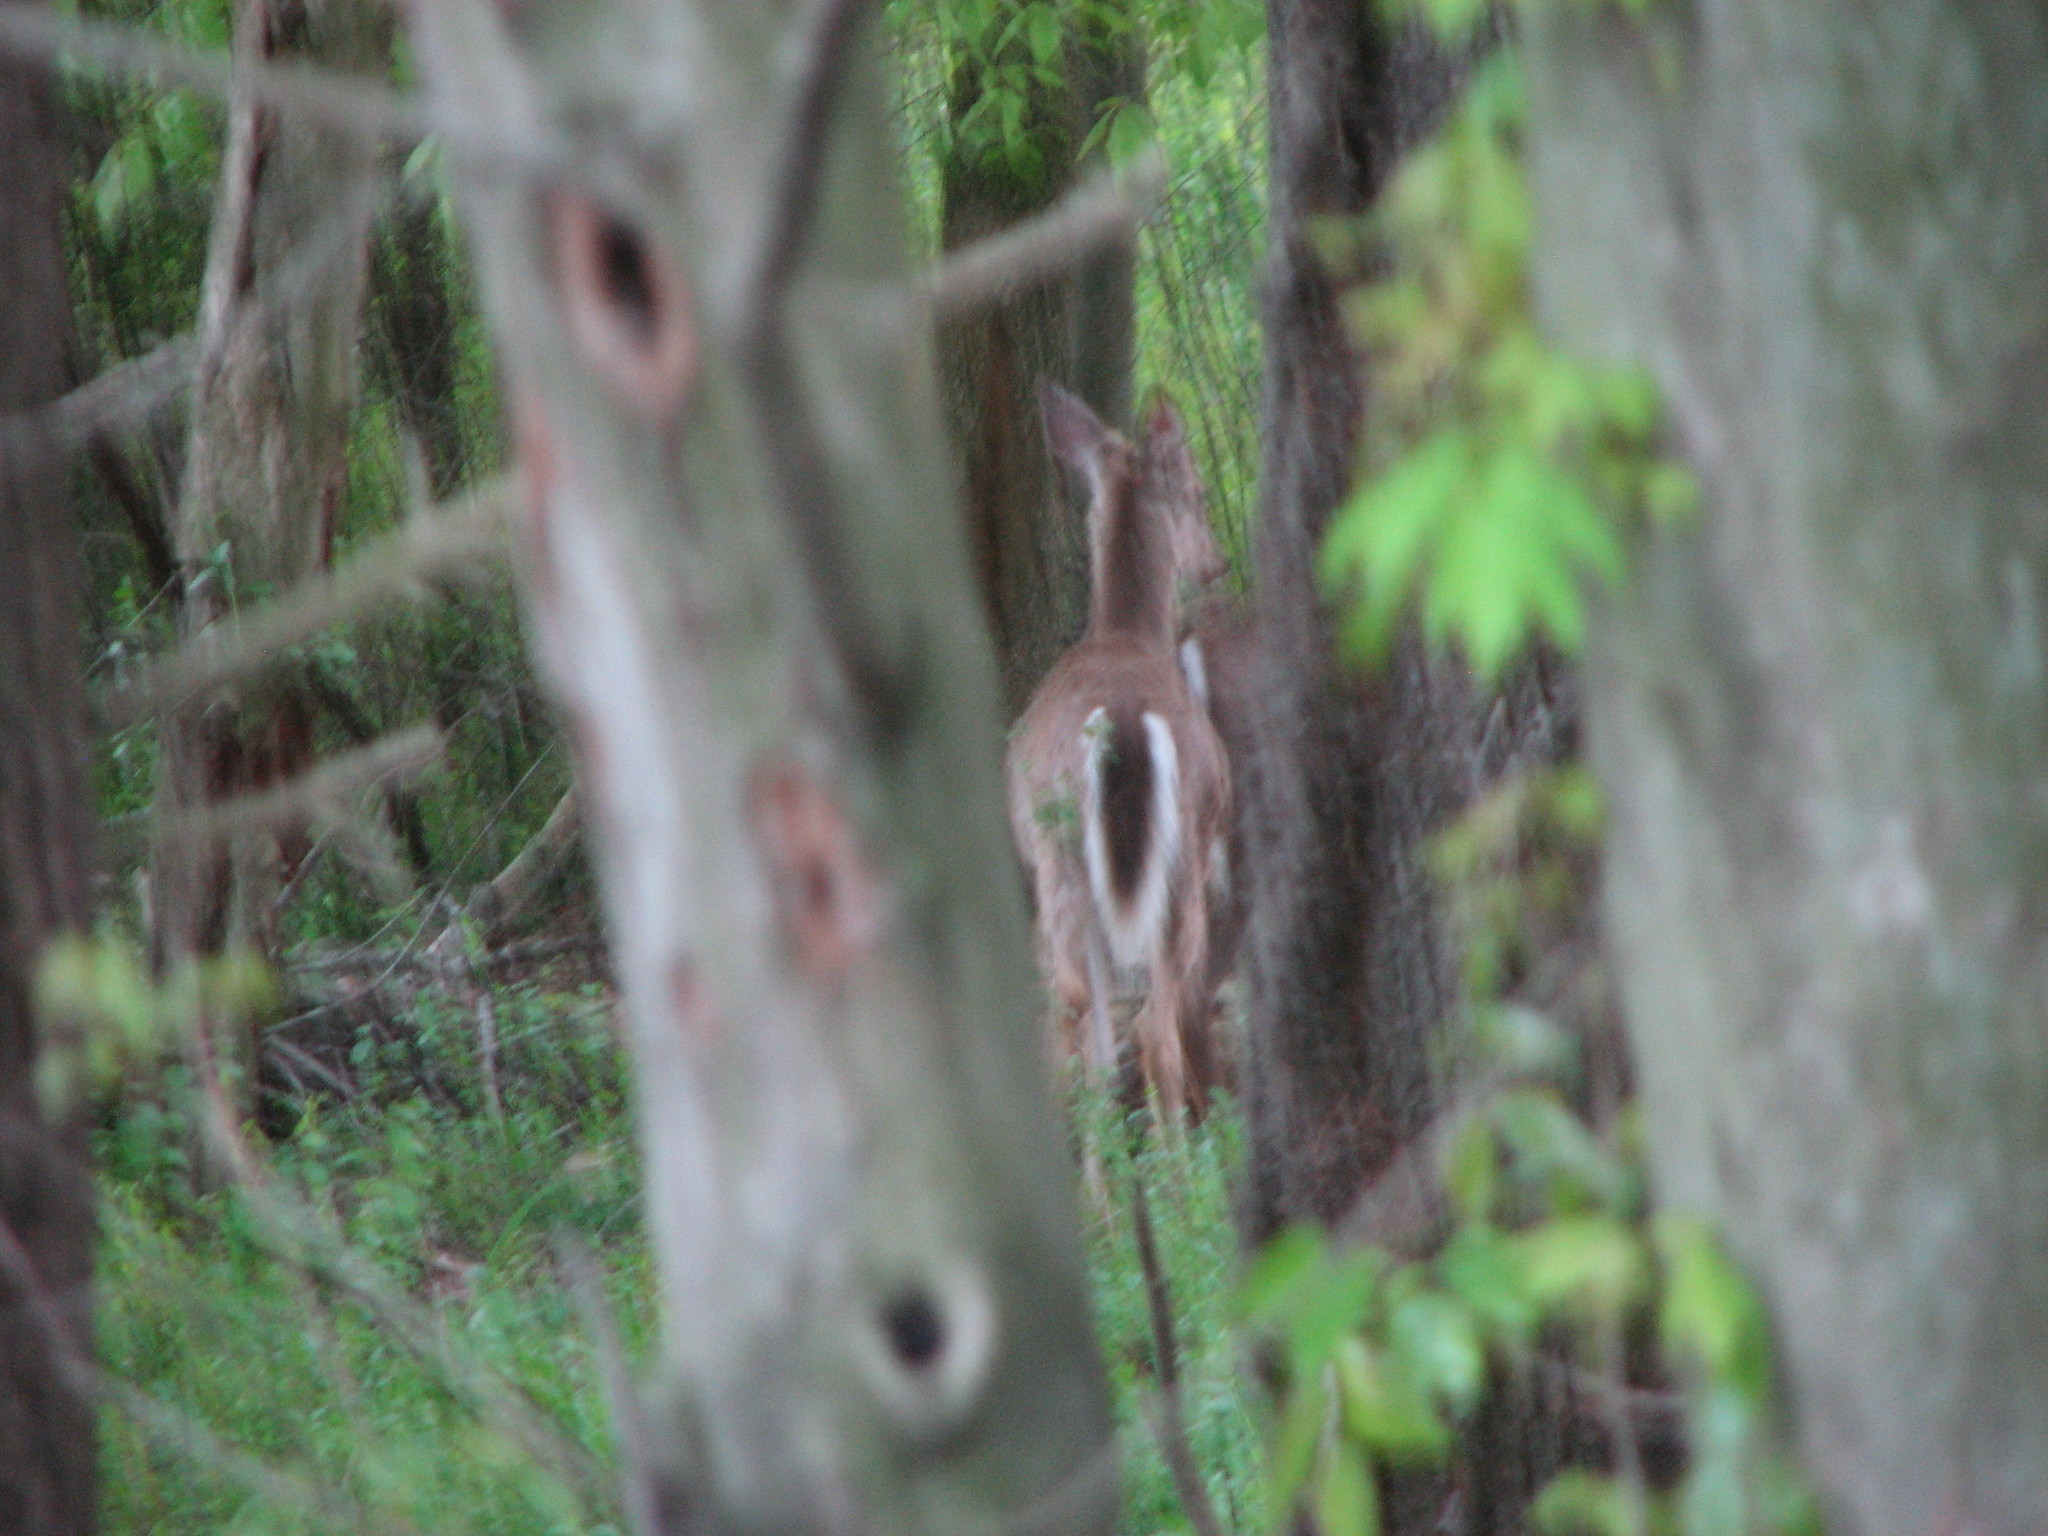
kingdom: Animalia
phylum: Chordata
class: Mammalia
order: Artiodactyla
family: Cervidae
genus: Odocoileus
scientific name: Odocoileus virginianus
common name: White-tailed deer
